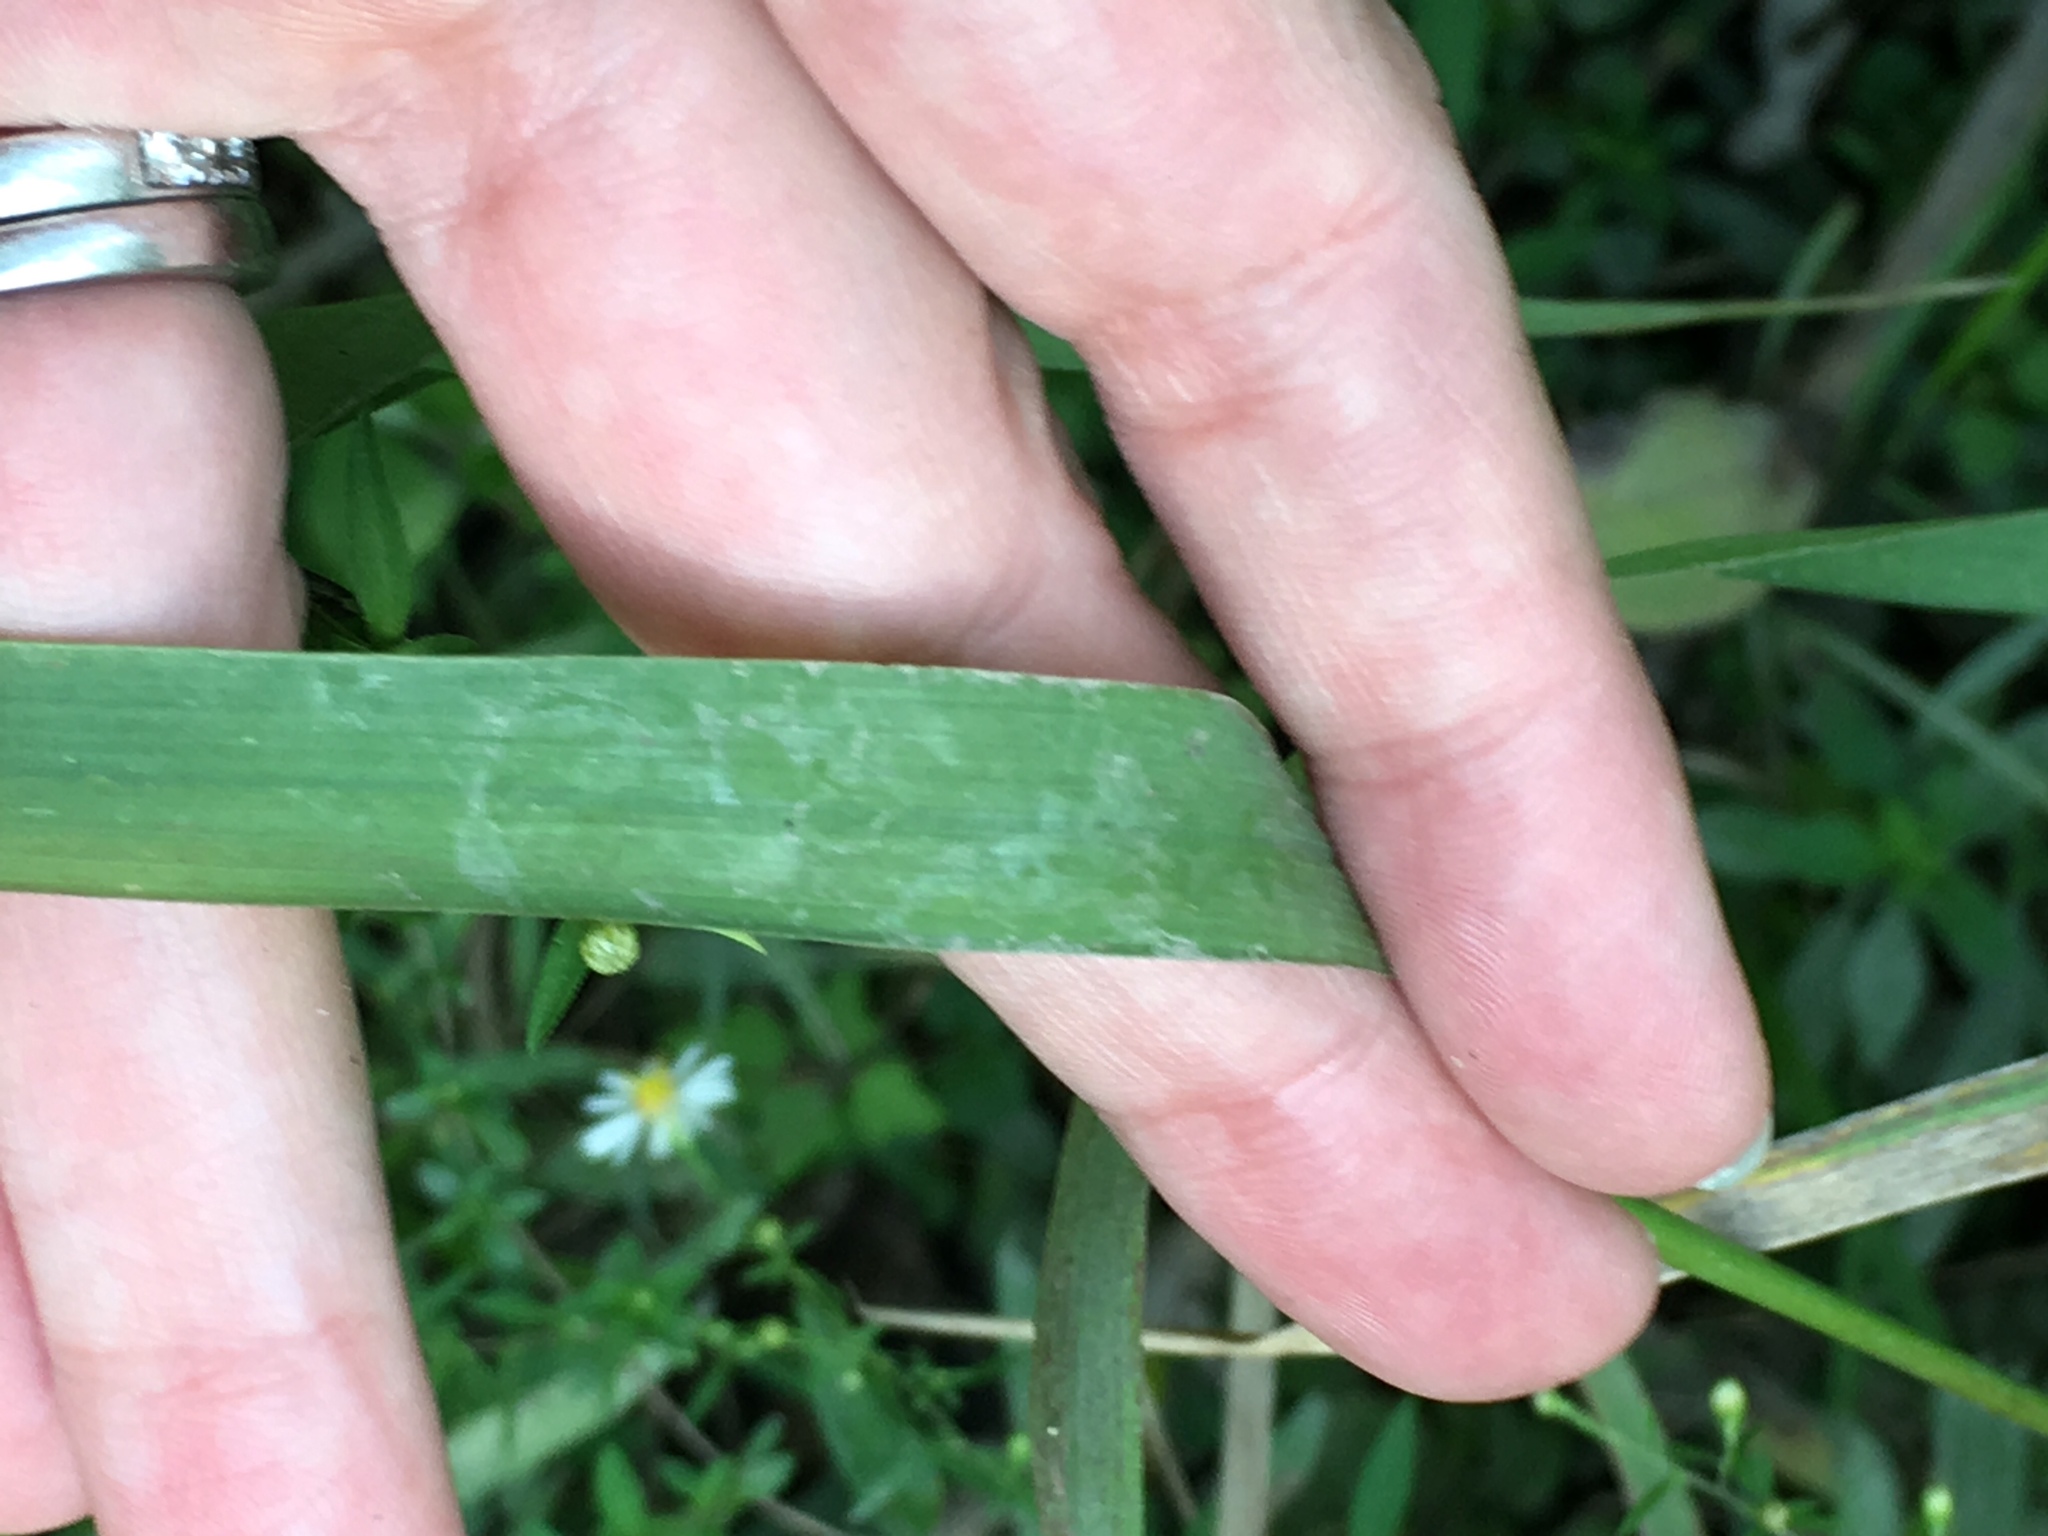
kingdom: Plantae
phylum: Tracheophyta
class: Liliopsida
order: Poales
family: Poaceae
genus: Elymus
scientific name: Elymus virginicus
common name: Common eastern wildrye
